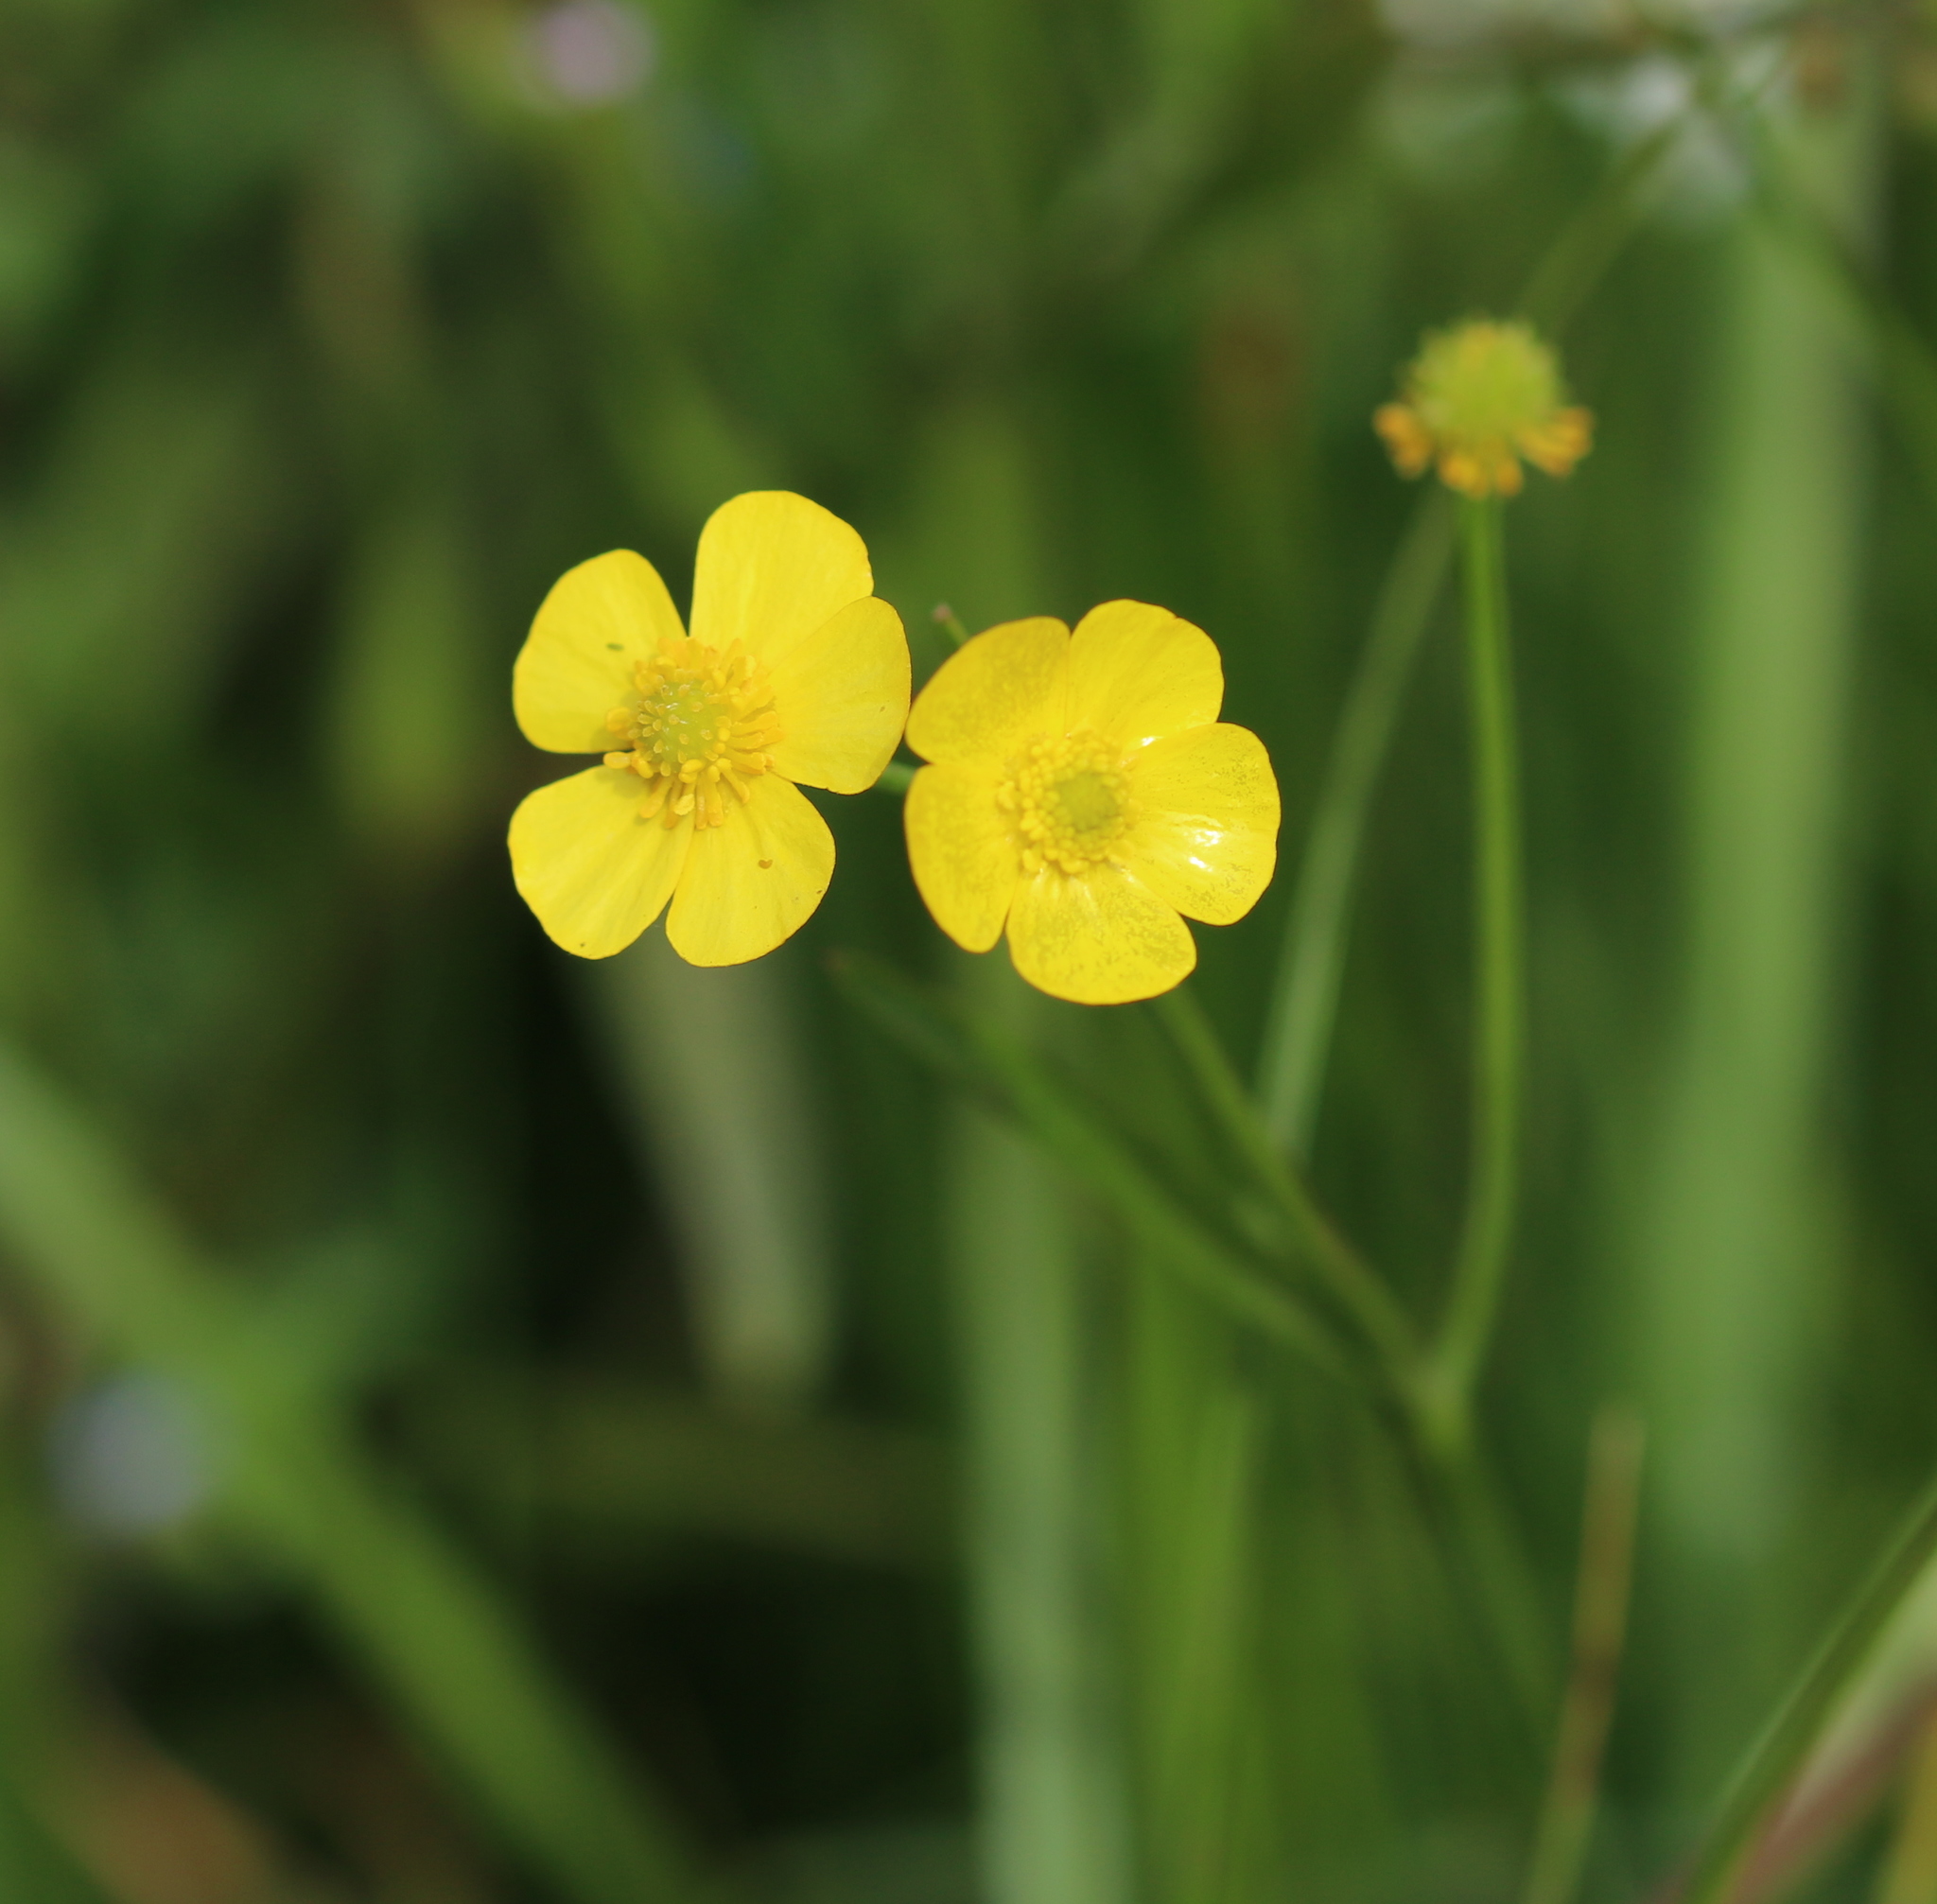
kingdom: Plantae
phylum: Tracheophyta
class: Magnoliopsida
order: Ranunculales
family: Ranunculaceae
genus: Ranunculus
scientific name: Ranunculus flammula
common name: Lesser spearwort
